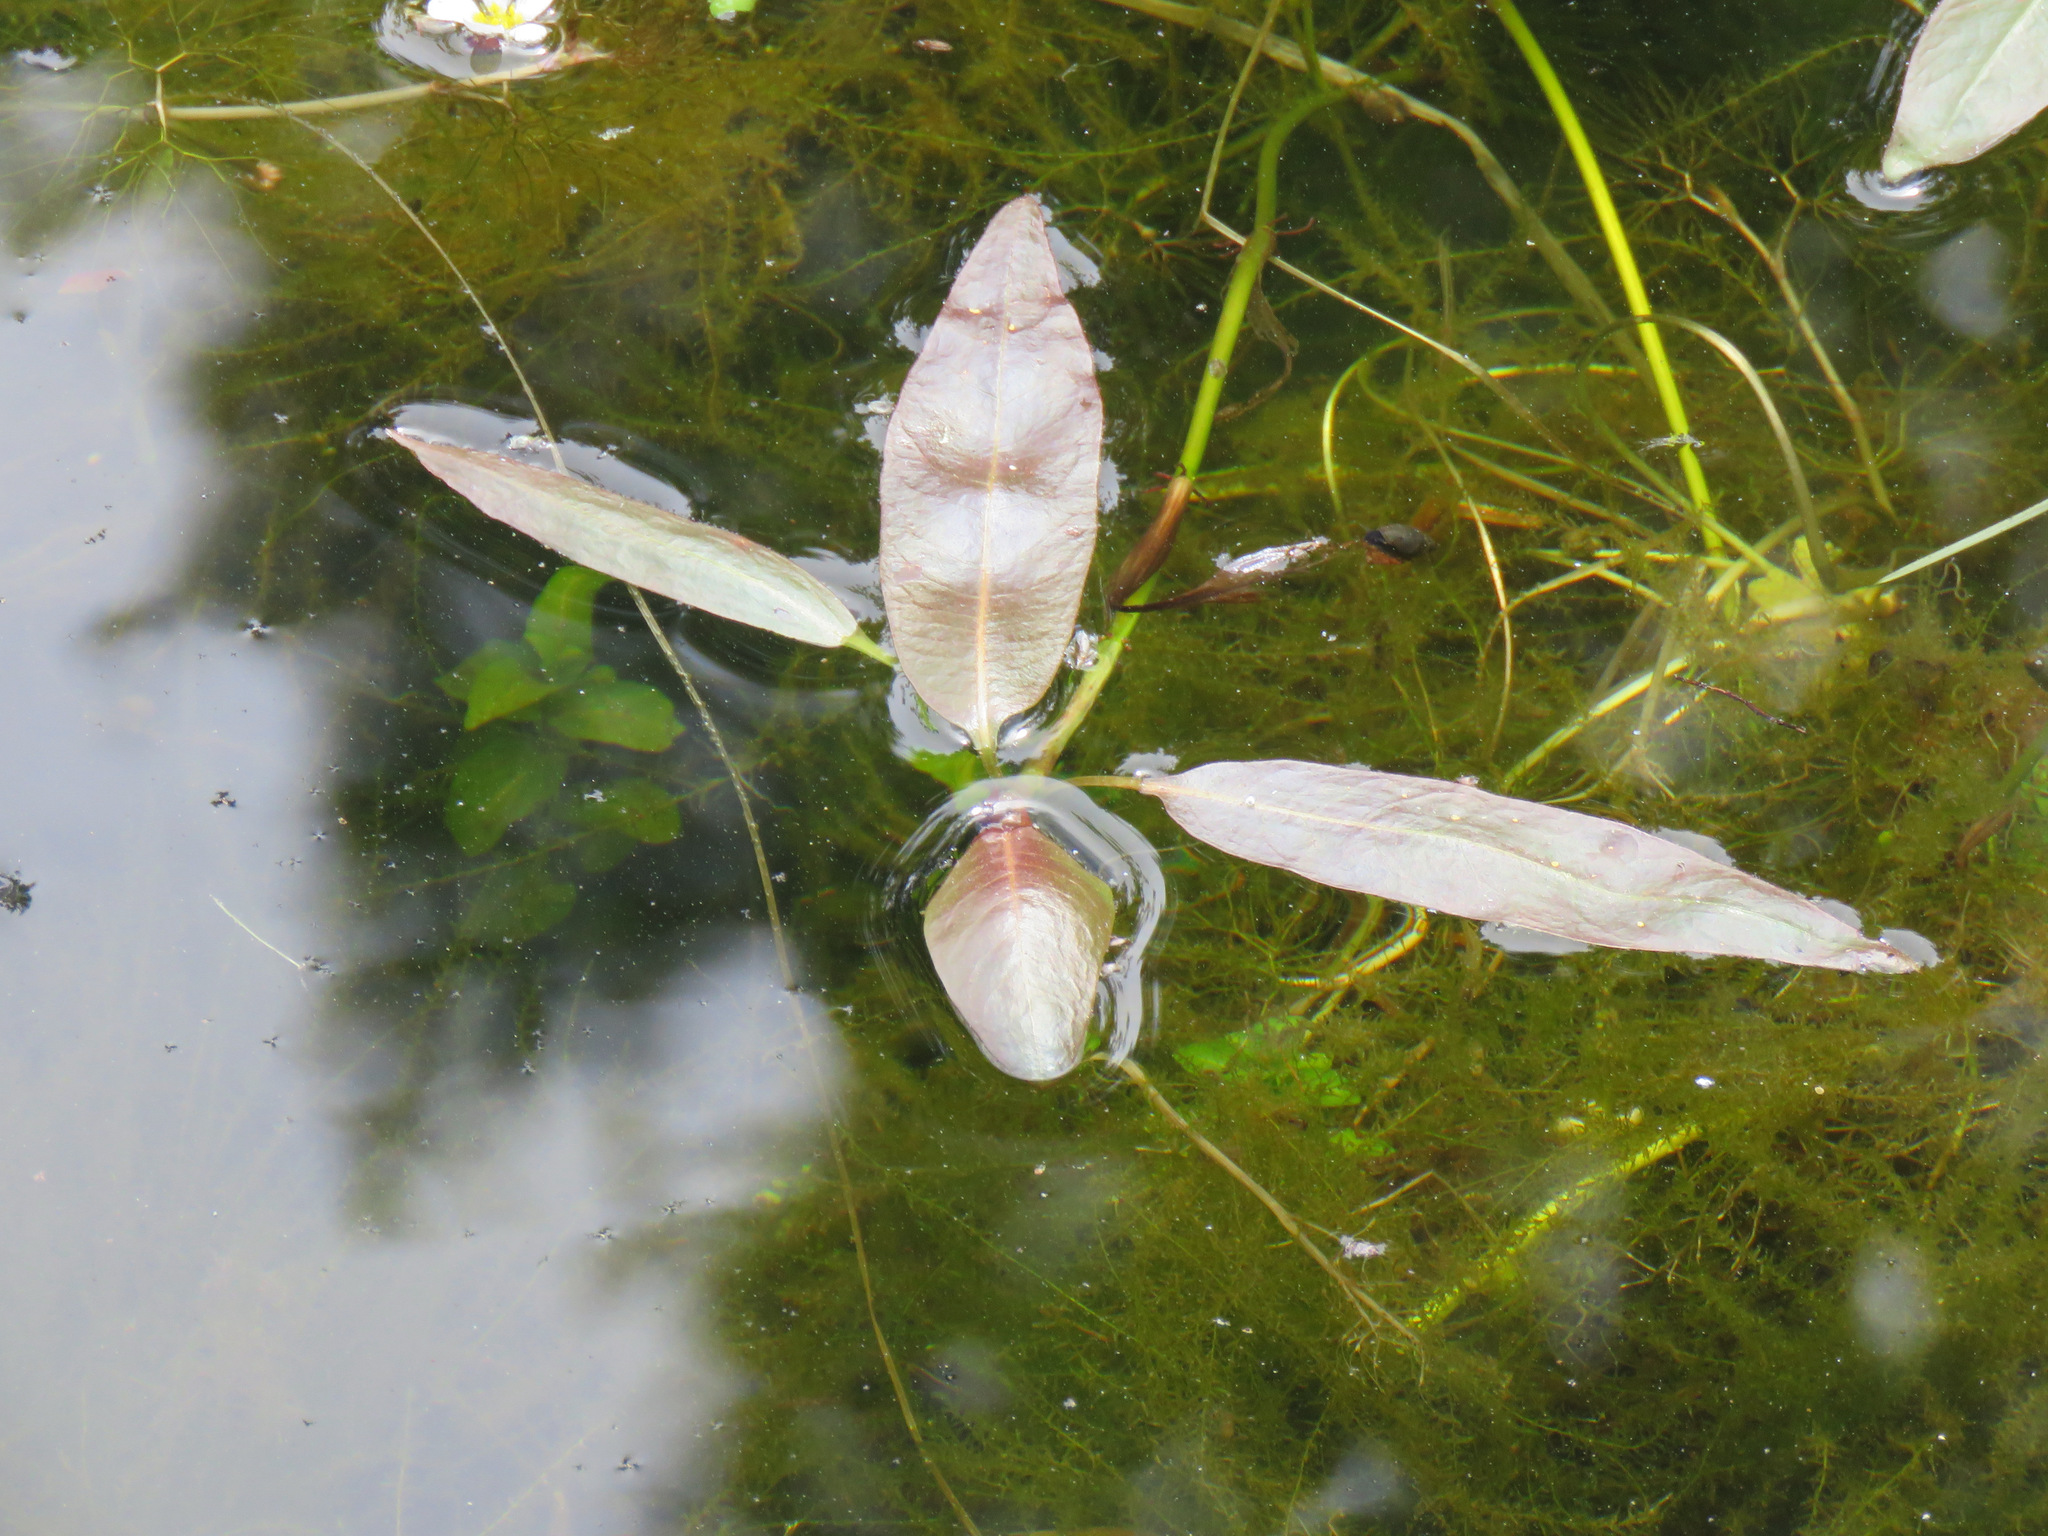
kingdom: Plantae
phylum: Tracheophyta
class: Magnoliopsida
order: Caryophyllales
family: Polygonaceae
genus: Persicaria
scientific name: Persicaria amphibia
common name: Amphibious bistort
